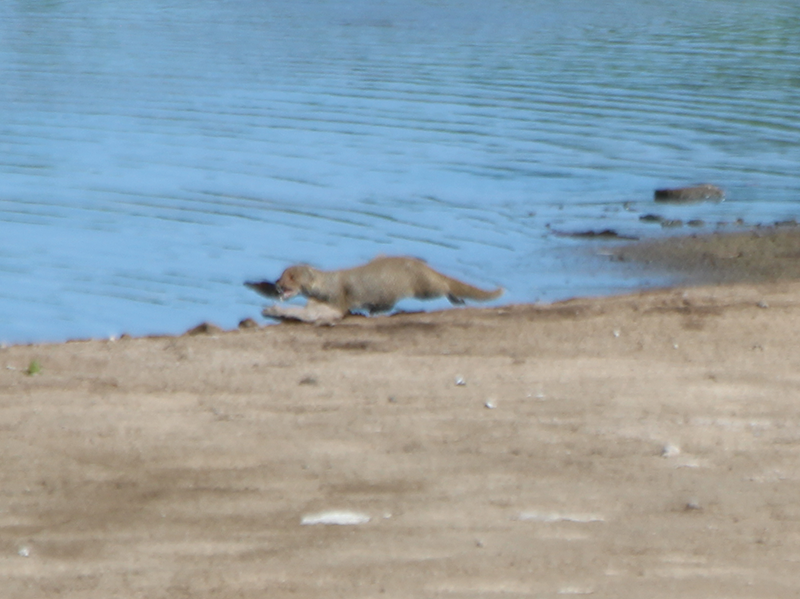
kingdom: Animalia
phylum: Chordata
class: Mammalia
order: Carnivora
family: Herpestidae
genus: Herpestes
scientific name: Herpestes javanicus
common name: Small asian mongoose
